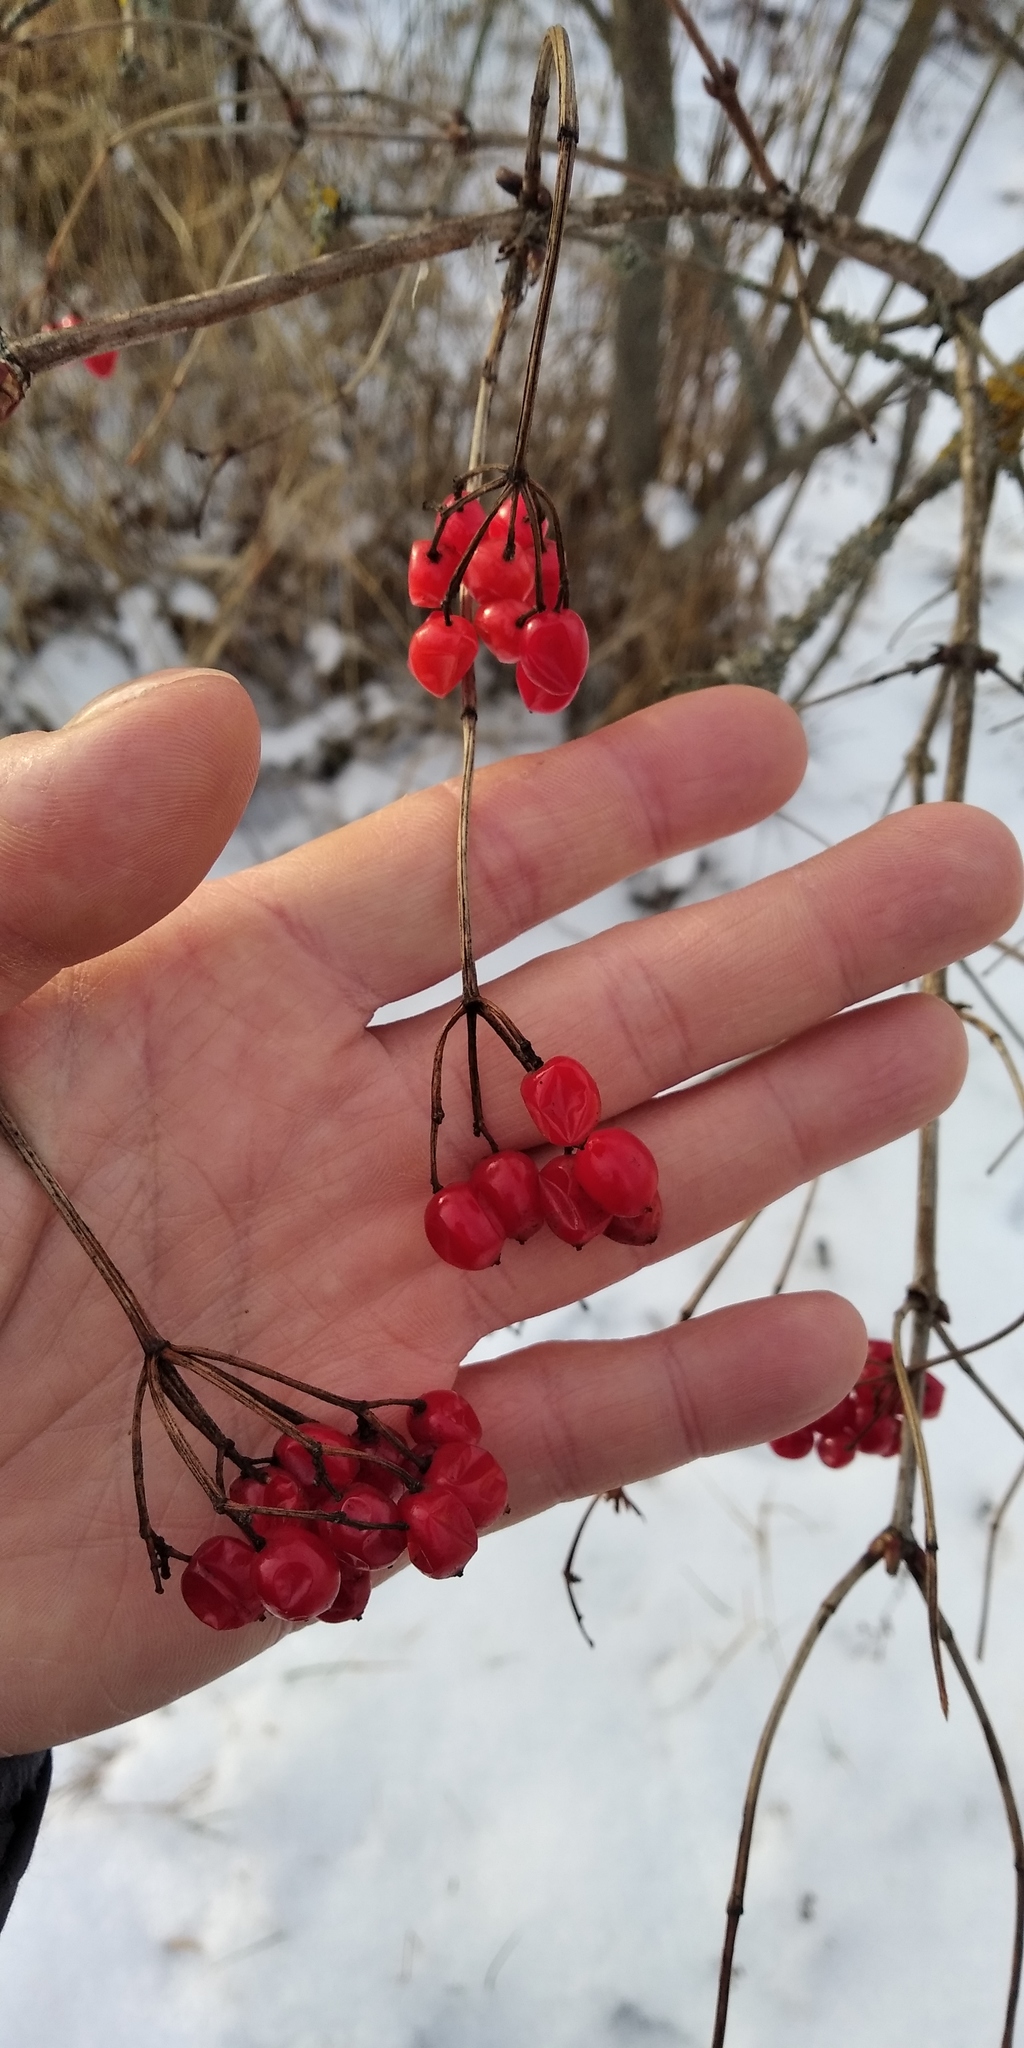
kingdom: Plantae
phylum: Tracheophyta
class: Magnoliopsida
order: Dipsacales
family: Viburnaceae
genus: Viburnum
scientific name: Viburnum opulus
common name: Guelder-rose
